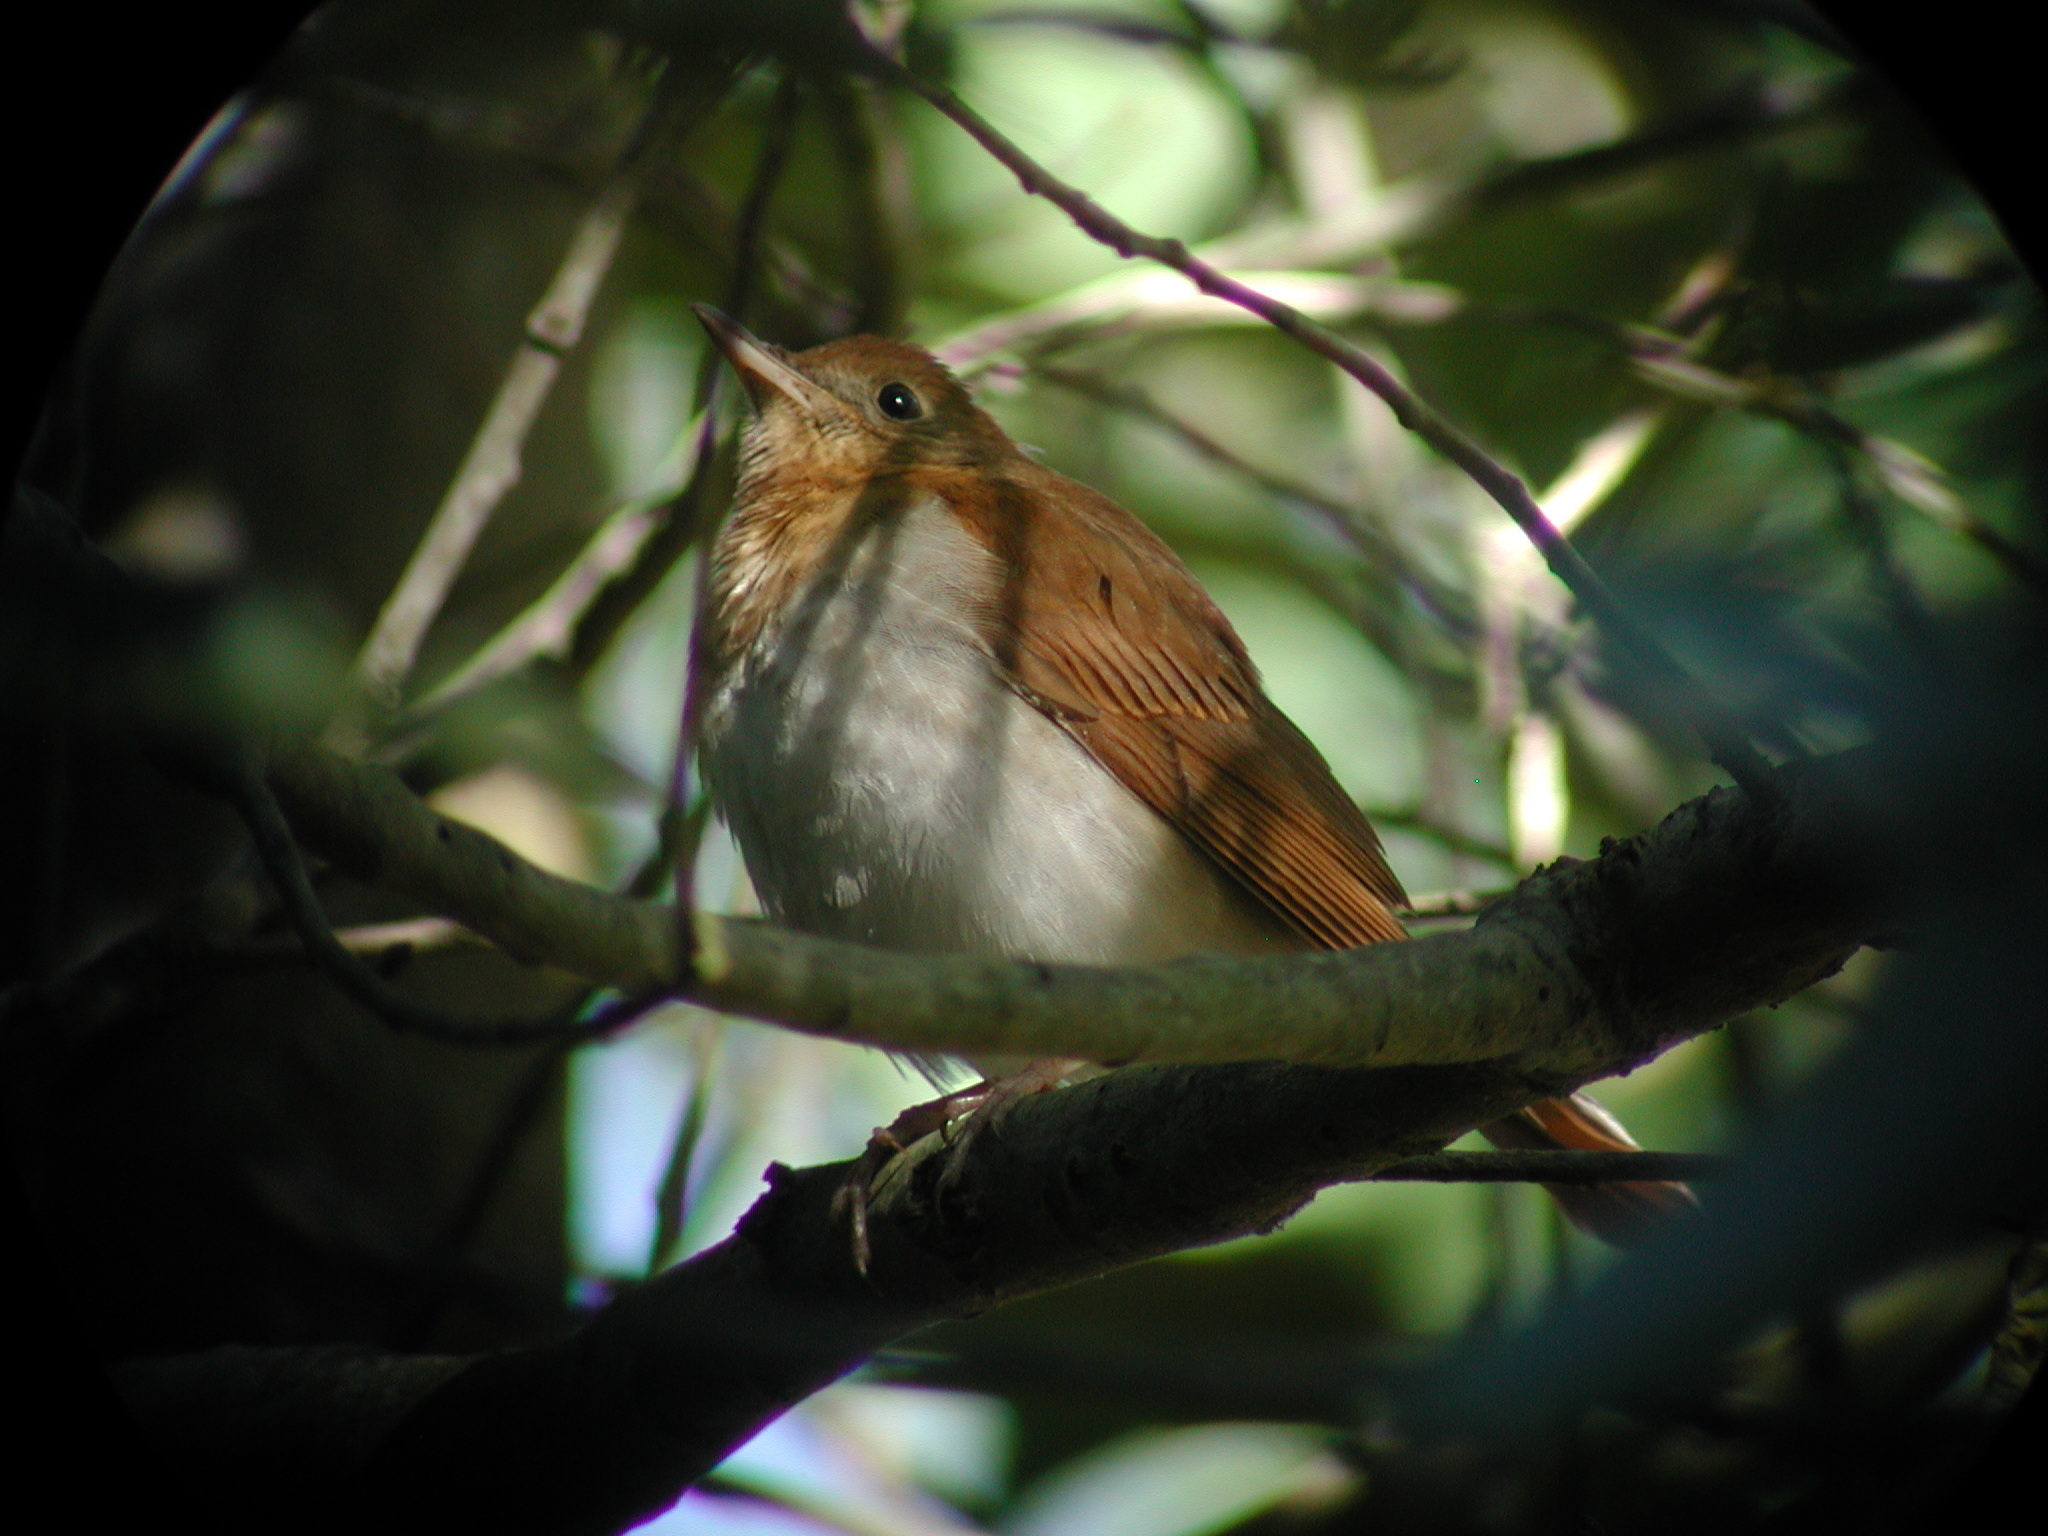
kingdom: Animalia
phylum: Chordata
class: Aves
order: Passeriformes
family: Turdidae
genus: Catharus
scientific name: Catharus fuscescens
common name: Veery
